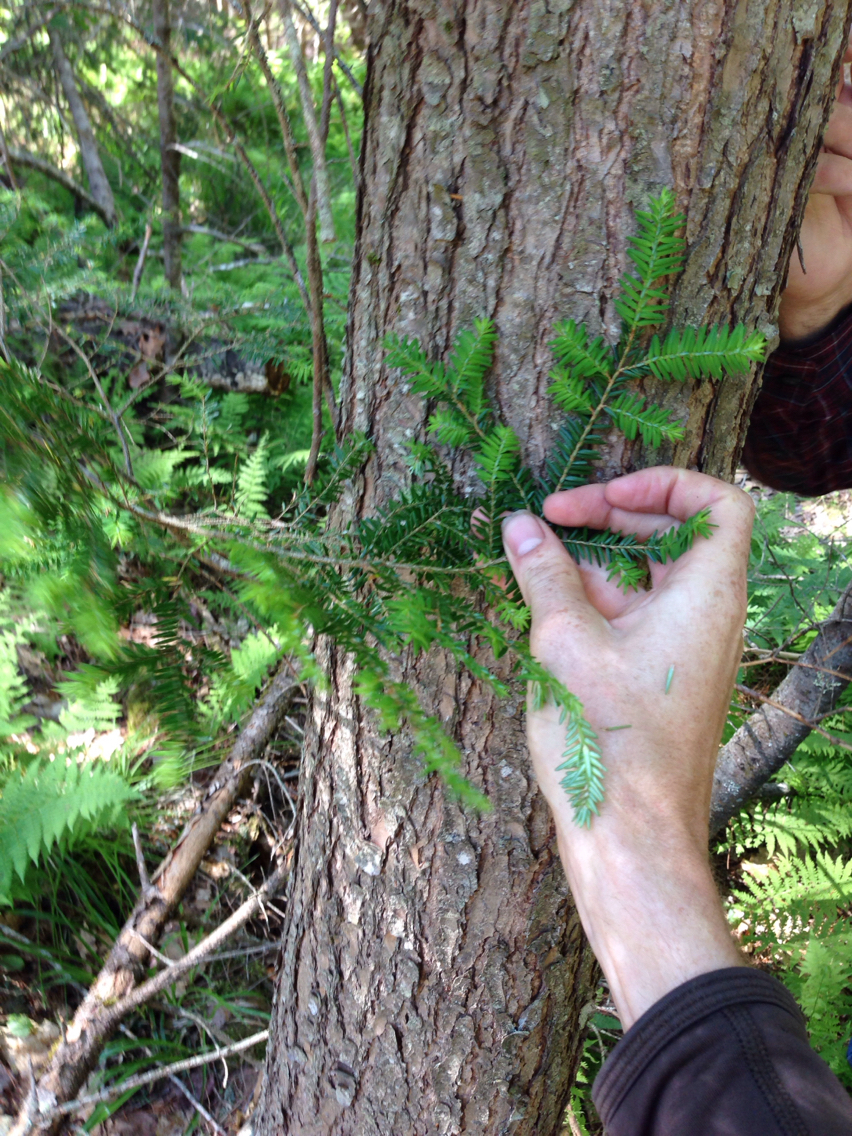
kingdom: Plantae
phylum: Tracheophyta
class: Pinopsida
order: Pinales
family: Pinaceae
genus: Tsuga
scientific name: Tsuga canadensis
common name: Eastern hemlock
